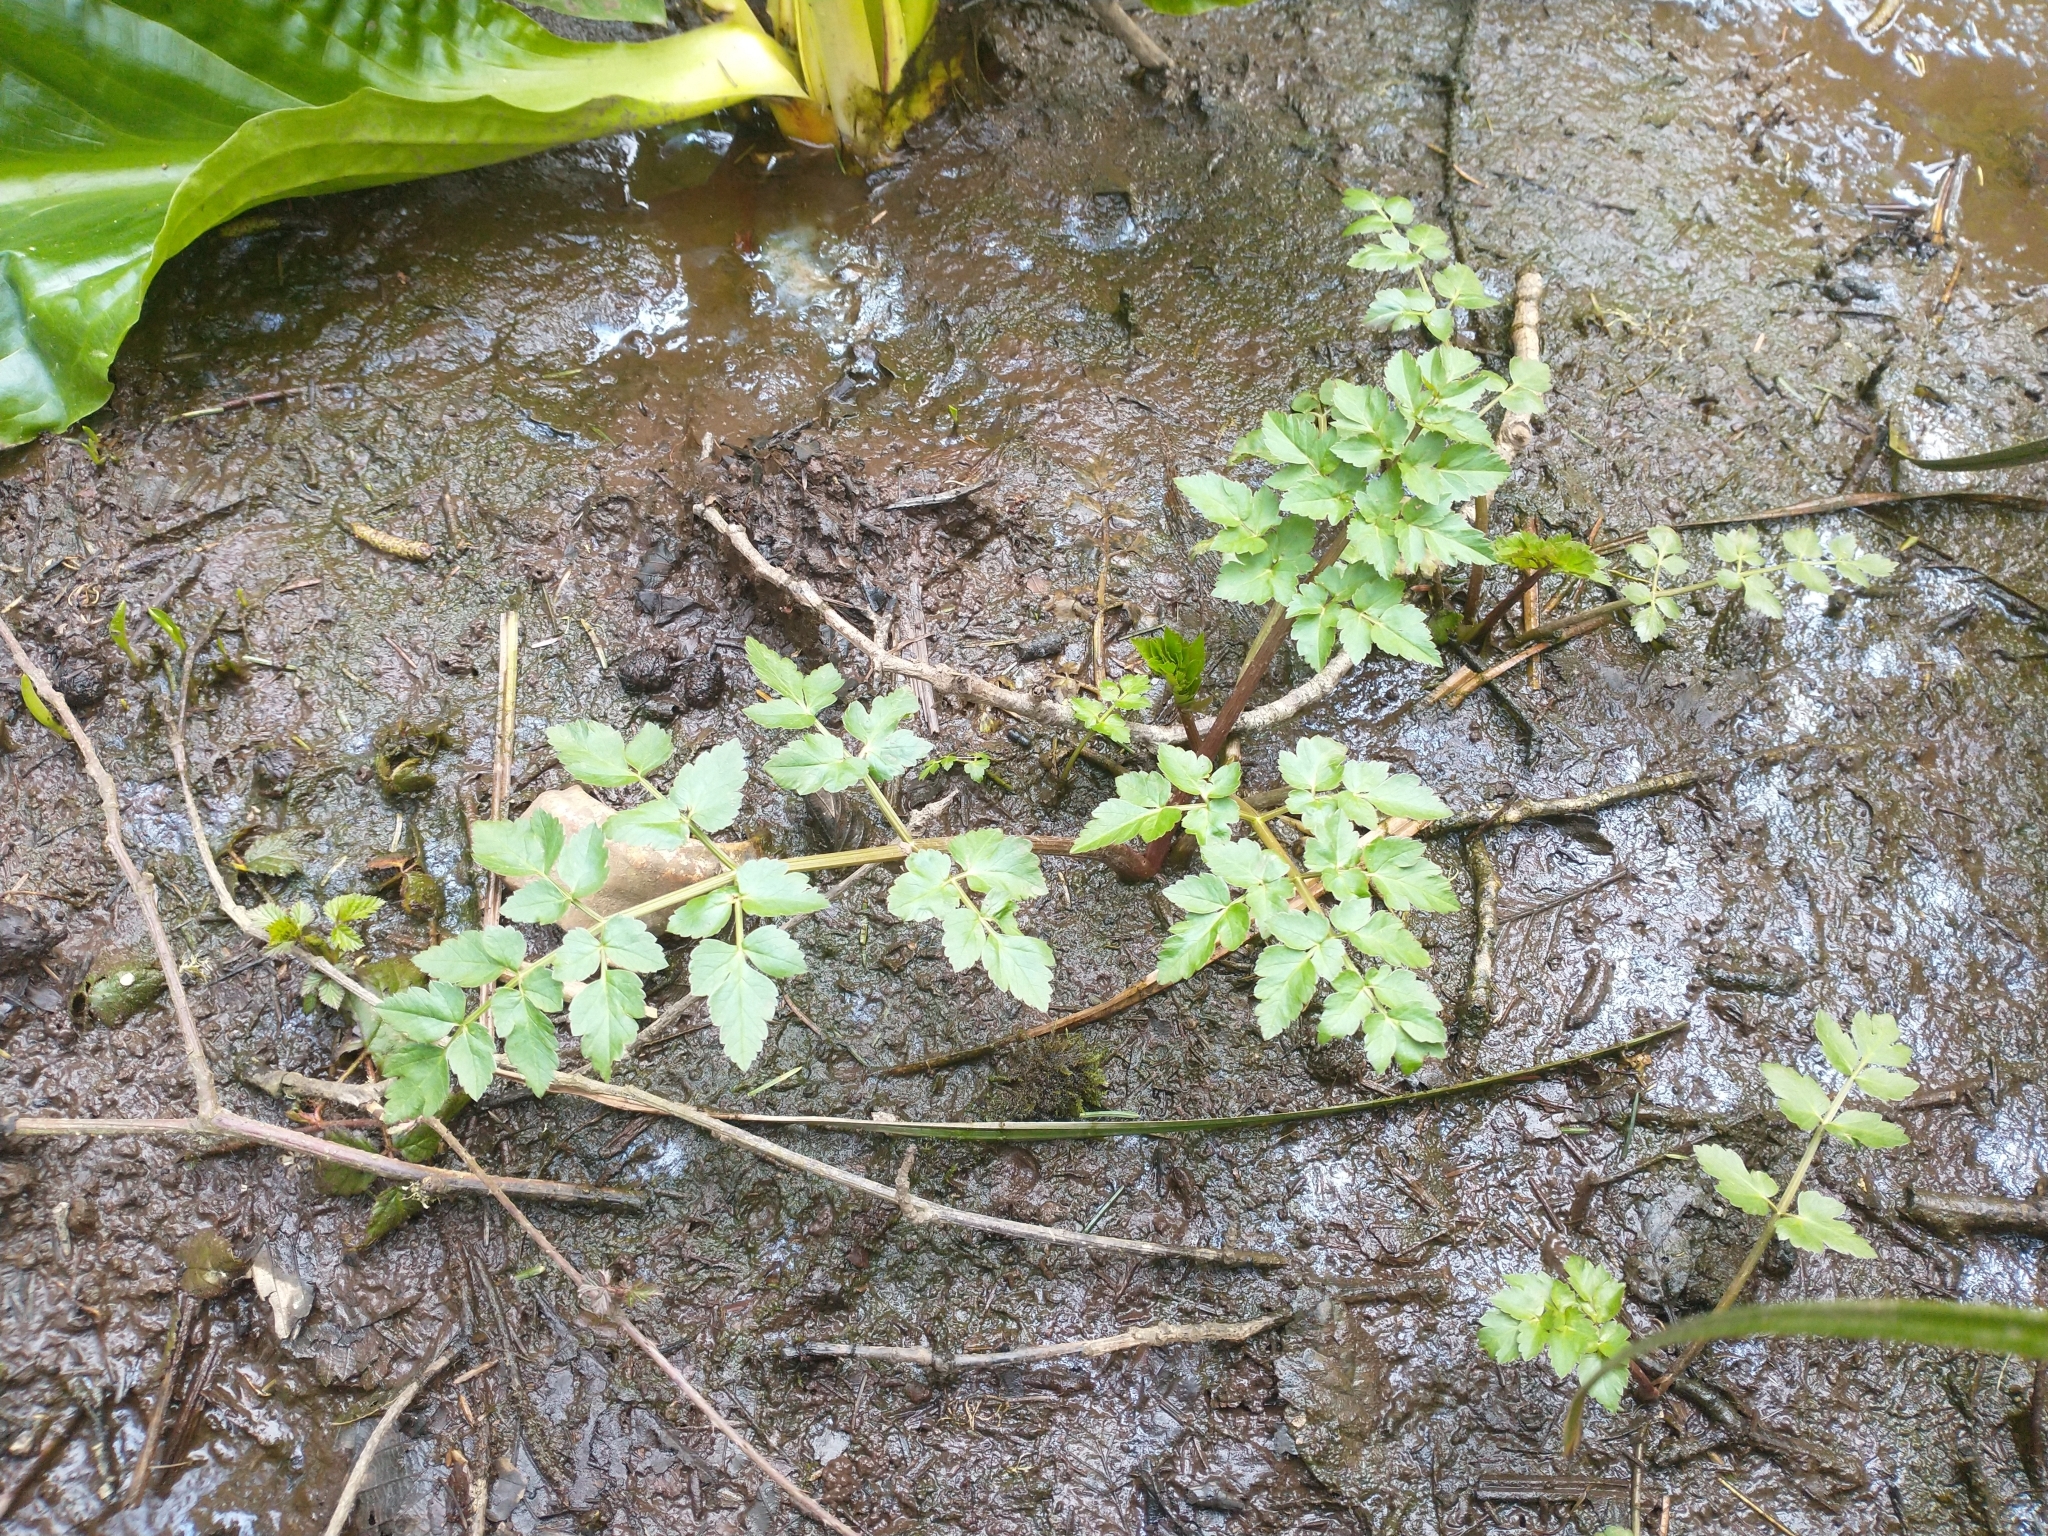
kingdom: Plantae
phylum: Tracheophyta
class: Magnoliopsida
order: Apiales
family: Apiaceae
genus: Oenanthe
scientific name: Oenanthe sarmentosa
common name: American water-parsley
